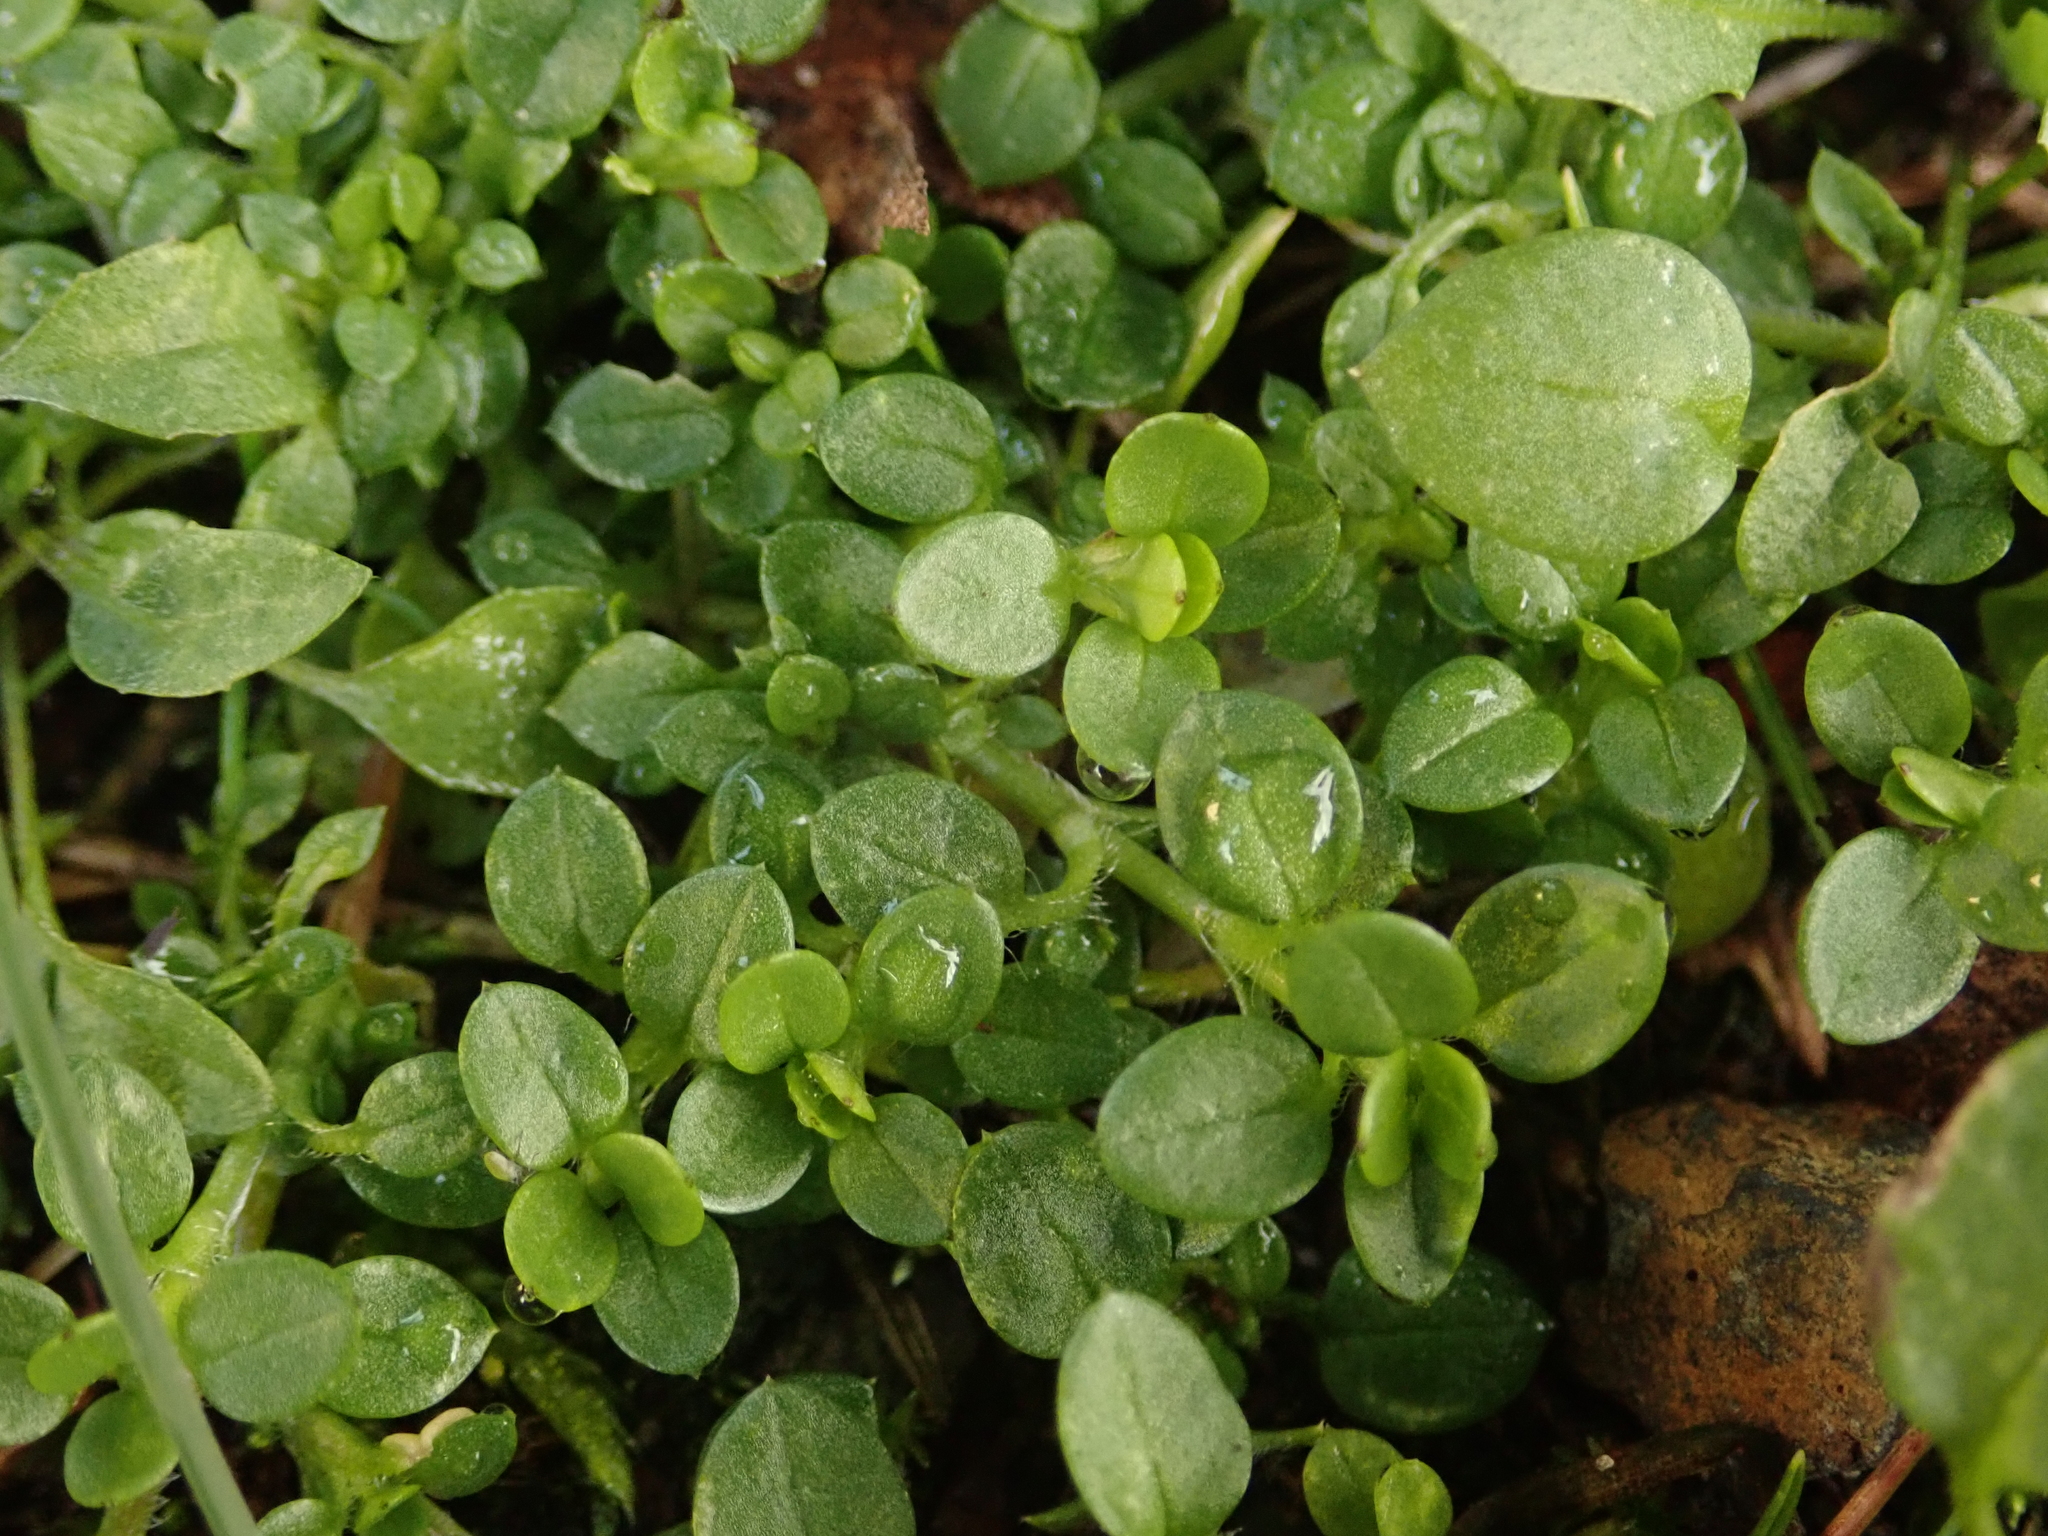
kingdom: Plantae
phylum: Tracheophyta
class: Magnoliopsida
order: Caryophyllales
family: Caryophyllaceae
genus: Stellaria
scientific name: Stellaria media
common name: Common chickweed
